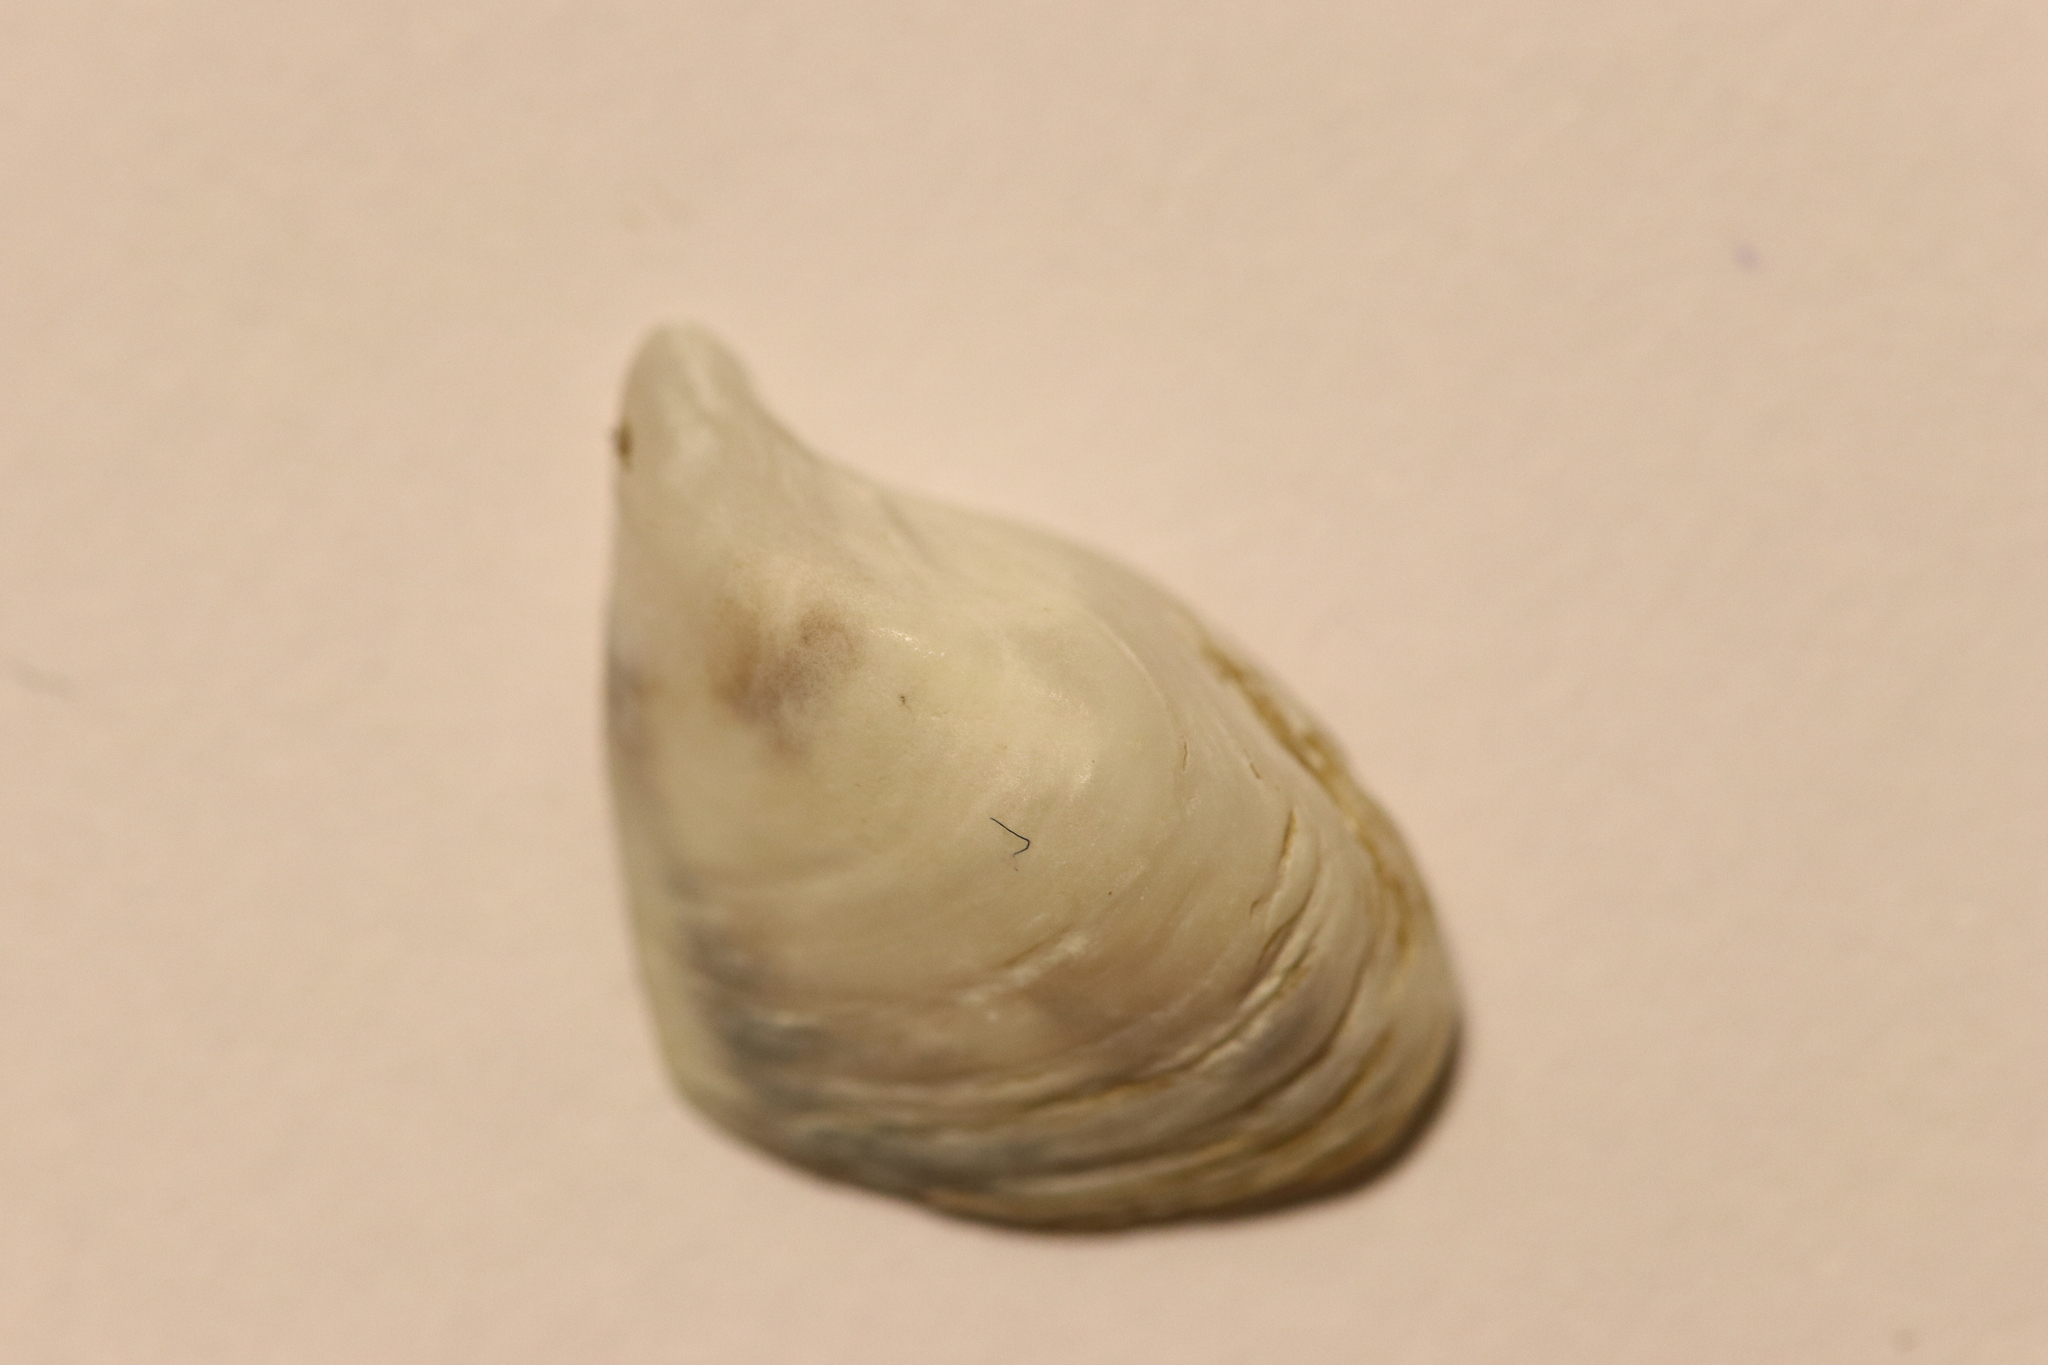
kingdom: Animalia
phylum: Mollusca
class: Bivalvia
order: Myida
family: Dreissenidae
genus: Dreissena
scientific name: Dreissena bugensis
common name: Quagga mussel
